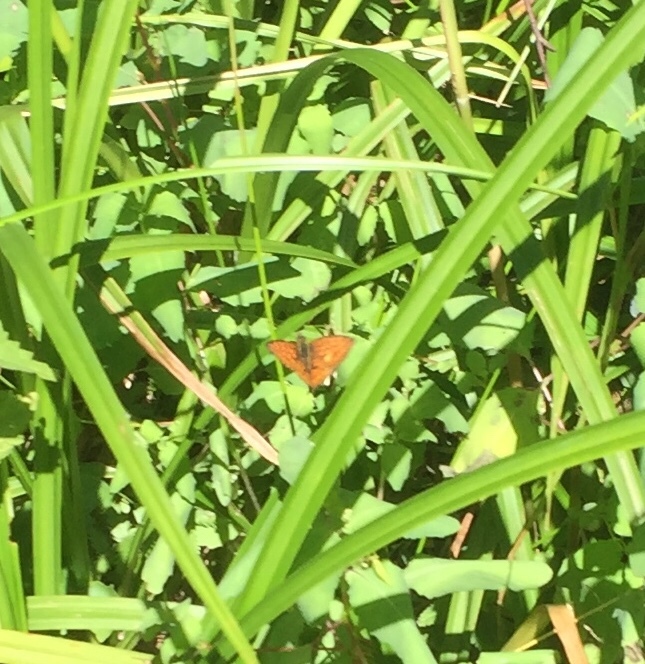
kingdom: Animalia
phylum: Arthropoda
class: Insecta
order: Lepidoptera
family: Nymphalidae
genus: Brenthis
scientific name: Brenthis ino
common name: Lesser marbled fritillary
